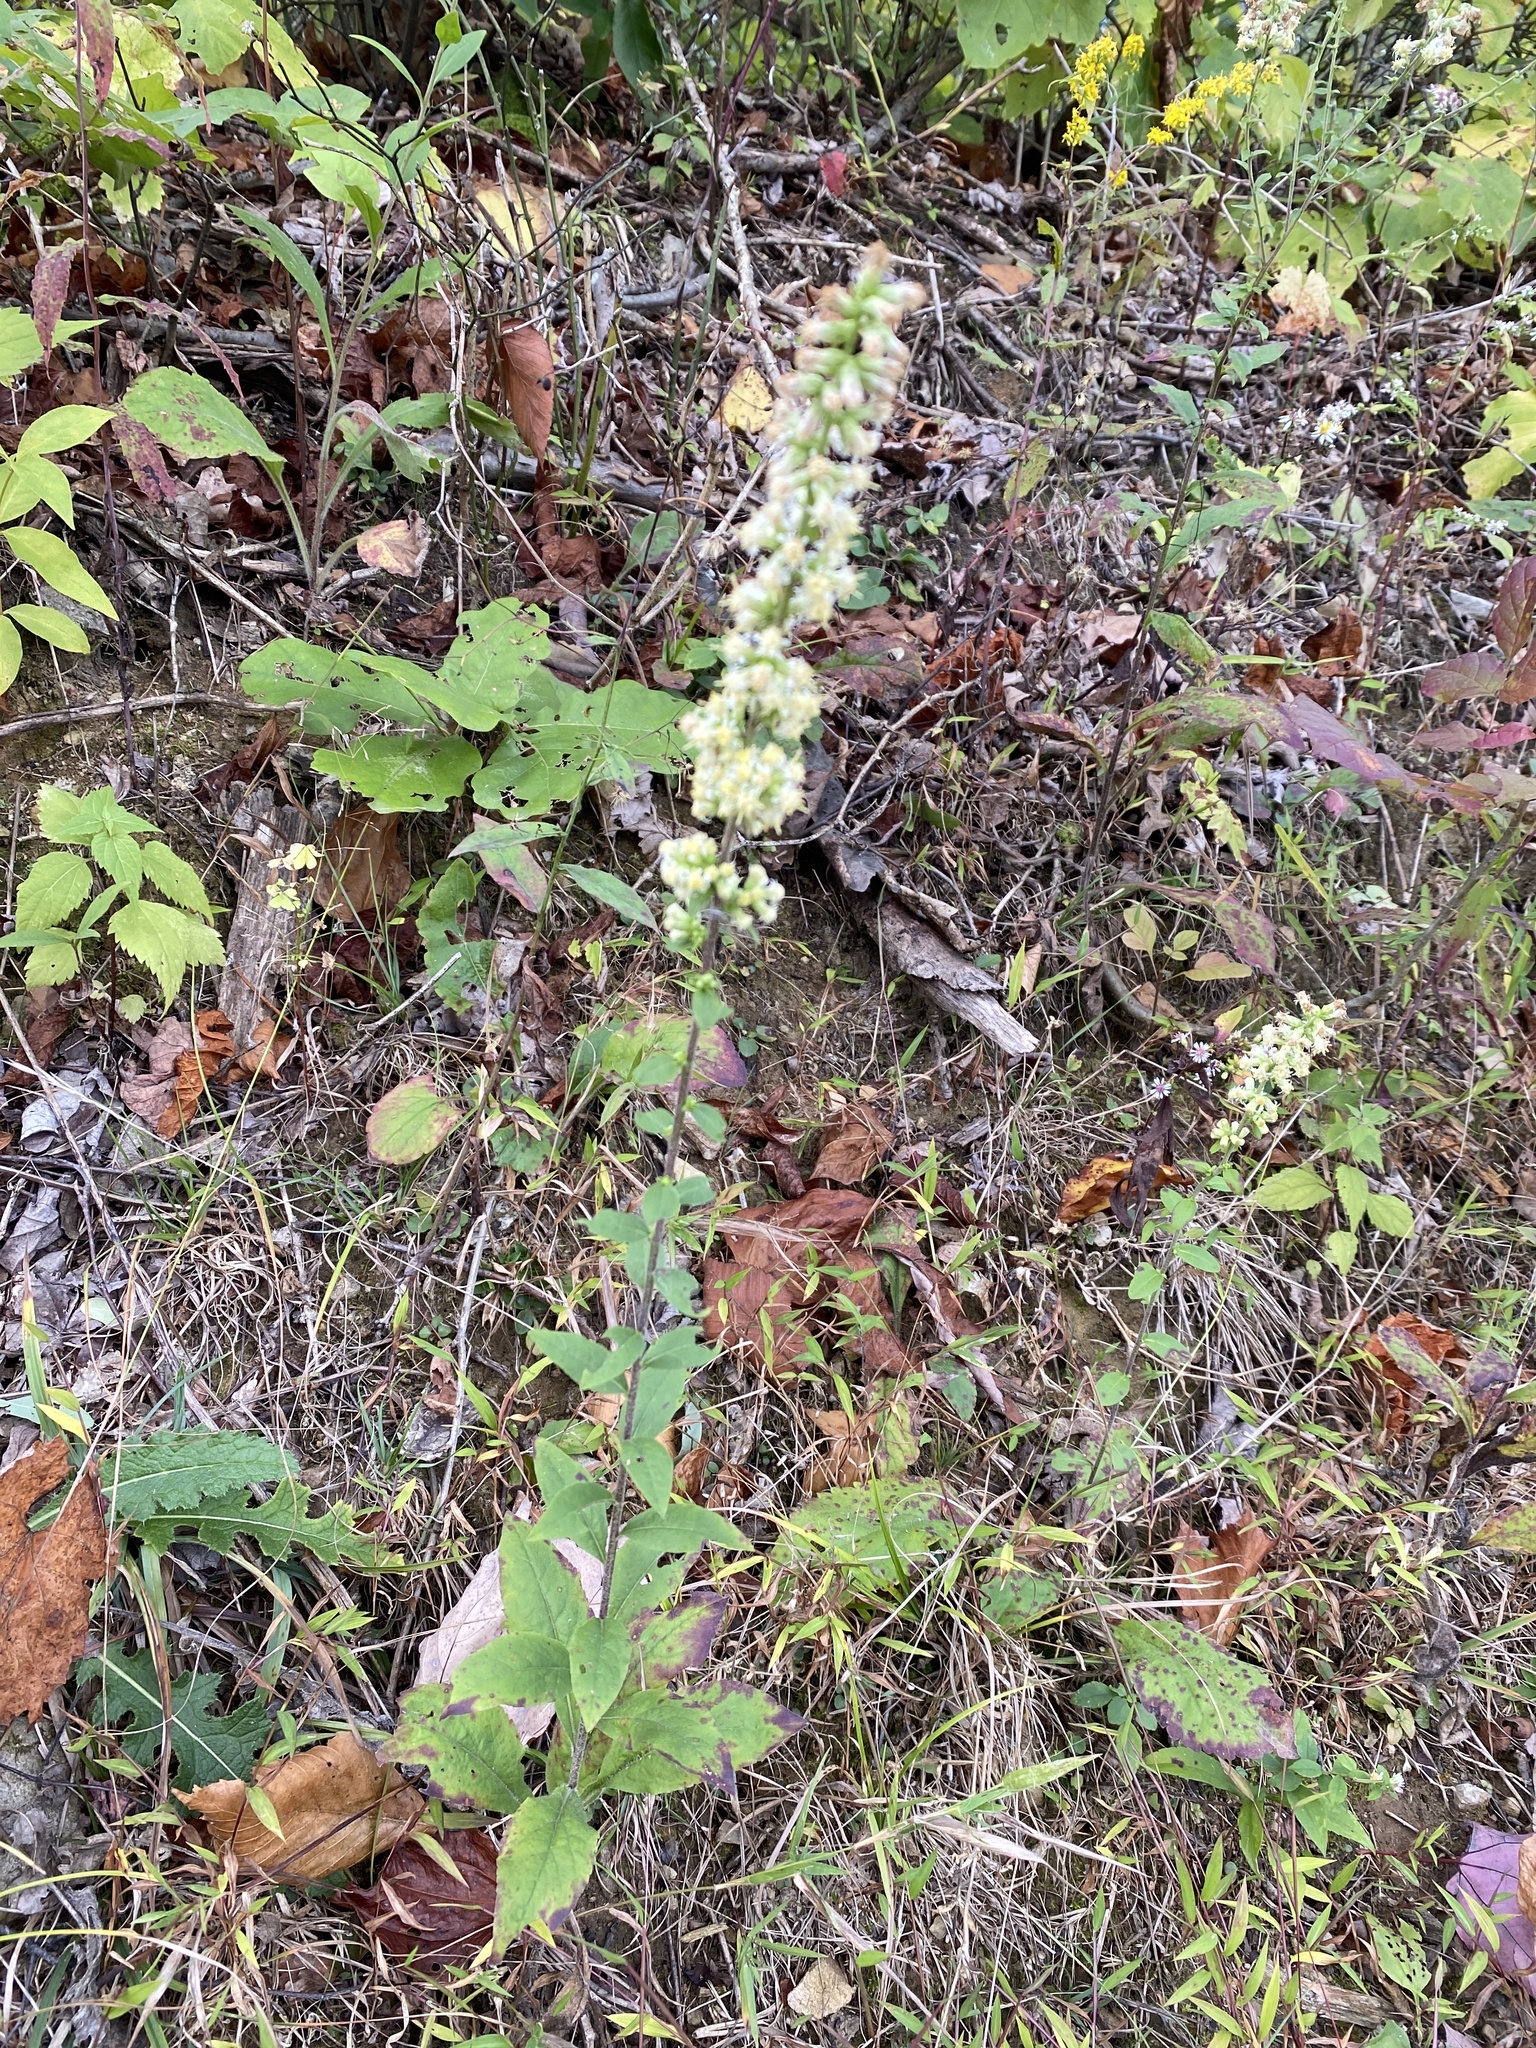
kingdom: Plantae
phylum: Tracheophyta
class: Magnoliopsida
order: Asterales
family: Asteraceae
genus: Solidago
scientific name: Solidago bicolor
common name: Silverrod
